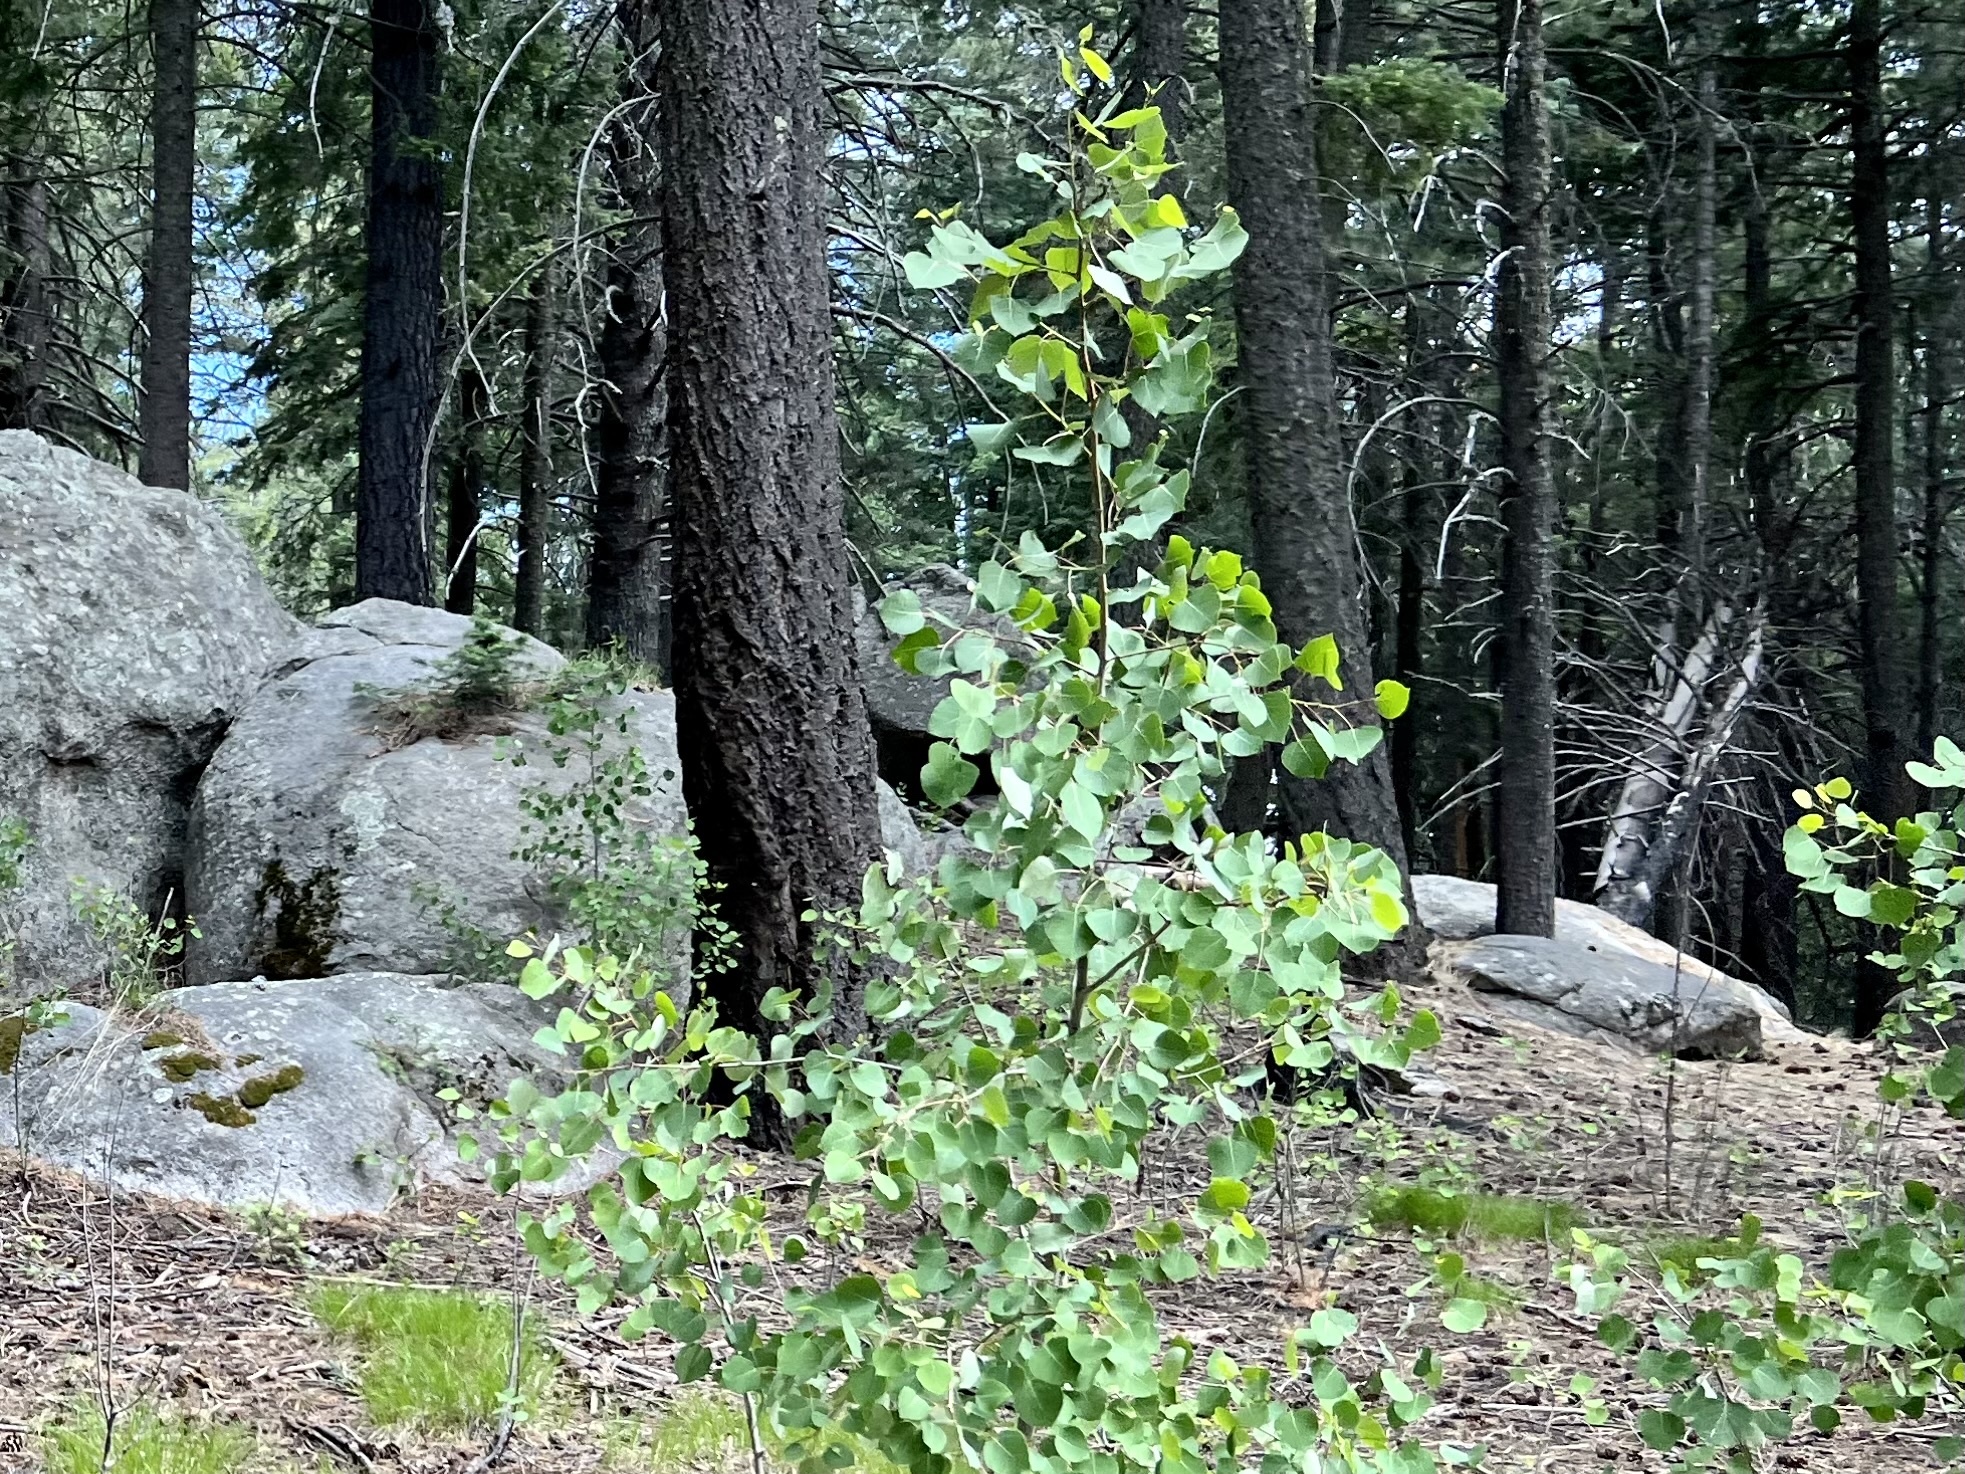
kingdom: Plantae
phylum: Tracheophyta
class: Magnoliopsida
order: Malpighiales
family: Salicaceae
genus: Populus
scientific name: Populus tremuloides
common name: Quaking aspen
